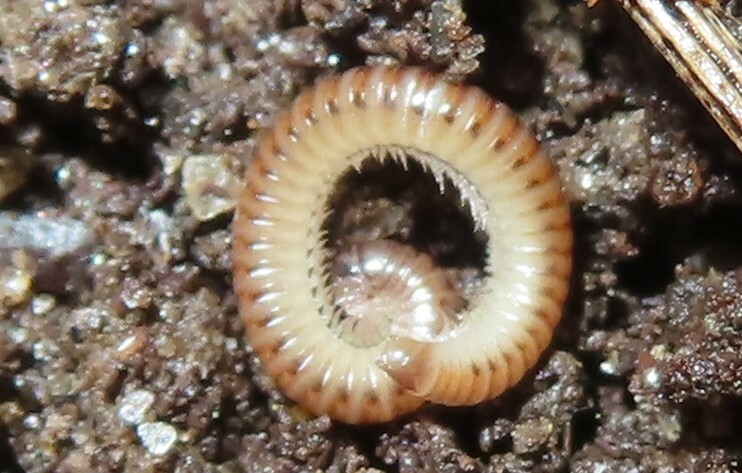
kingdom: Animalia
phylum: Arthropoda
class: Diplopoda
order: Julida
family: Julidae
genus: Cylindroiulus
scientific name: Cylindroiulus punctatus
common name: Blunt-tailed millipede
